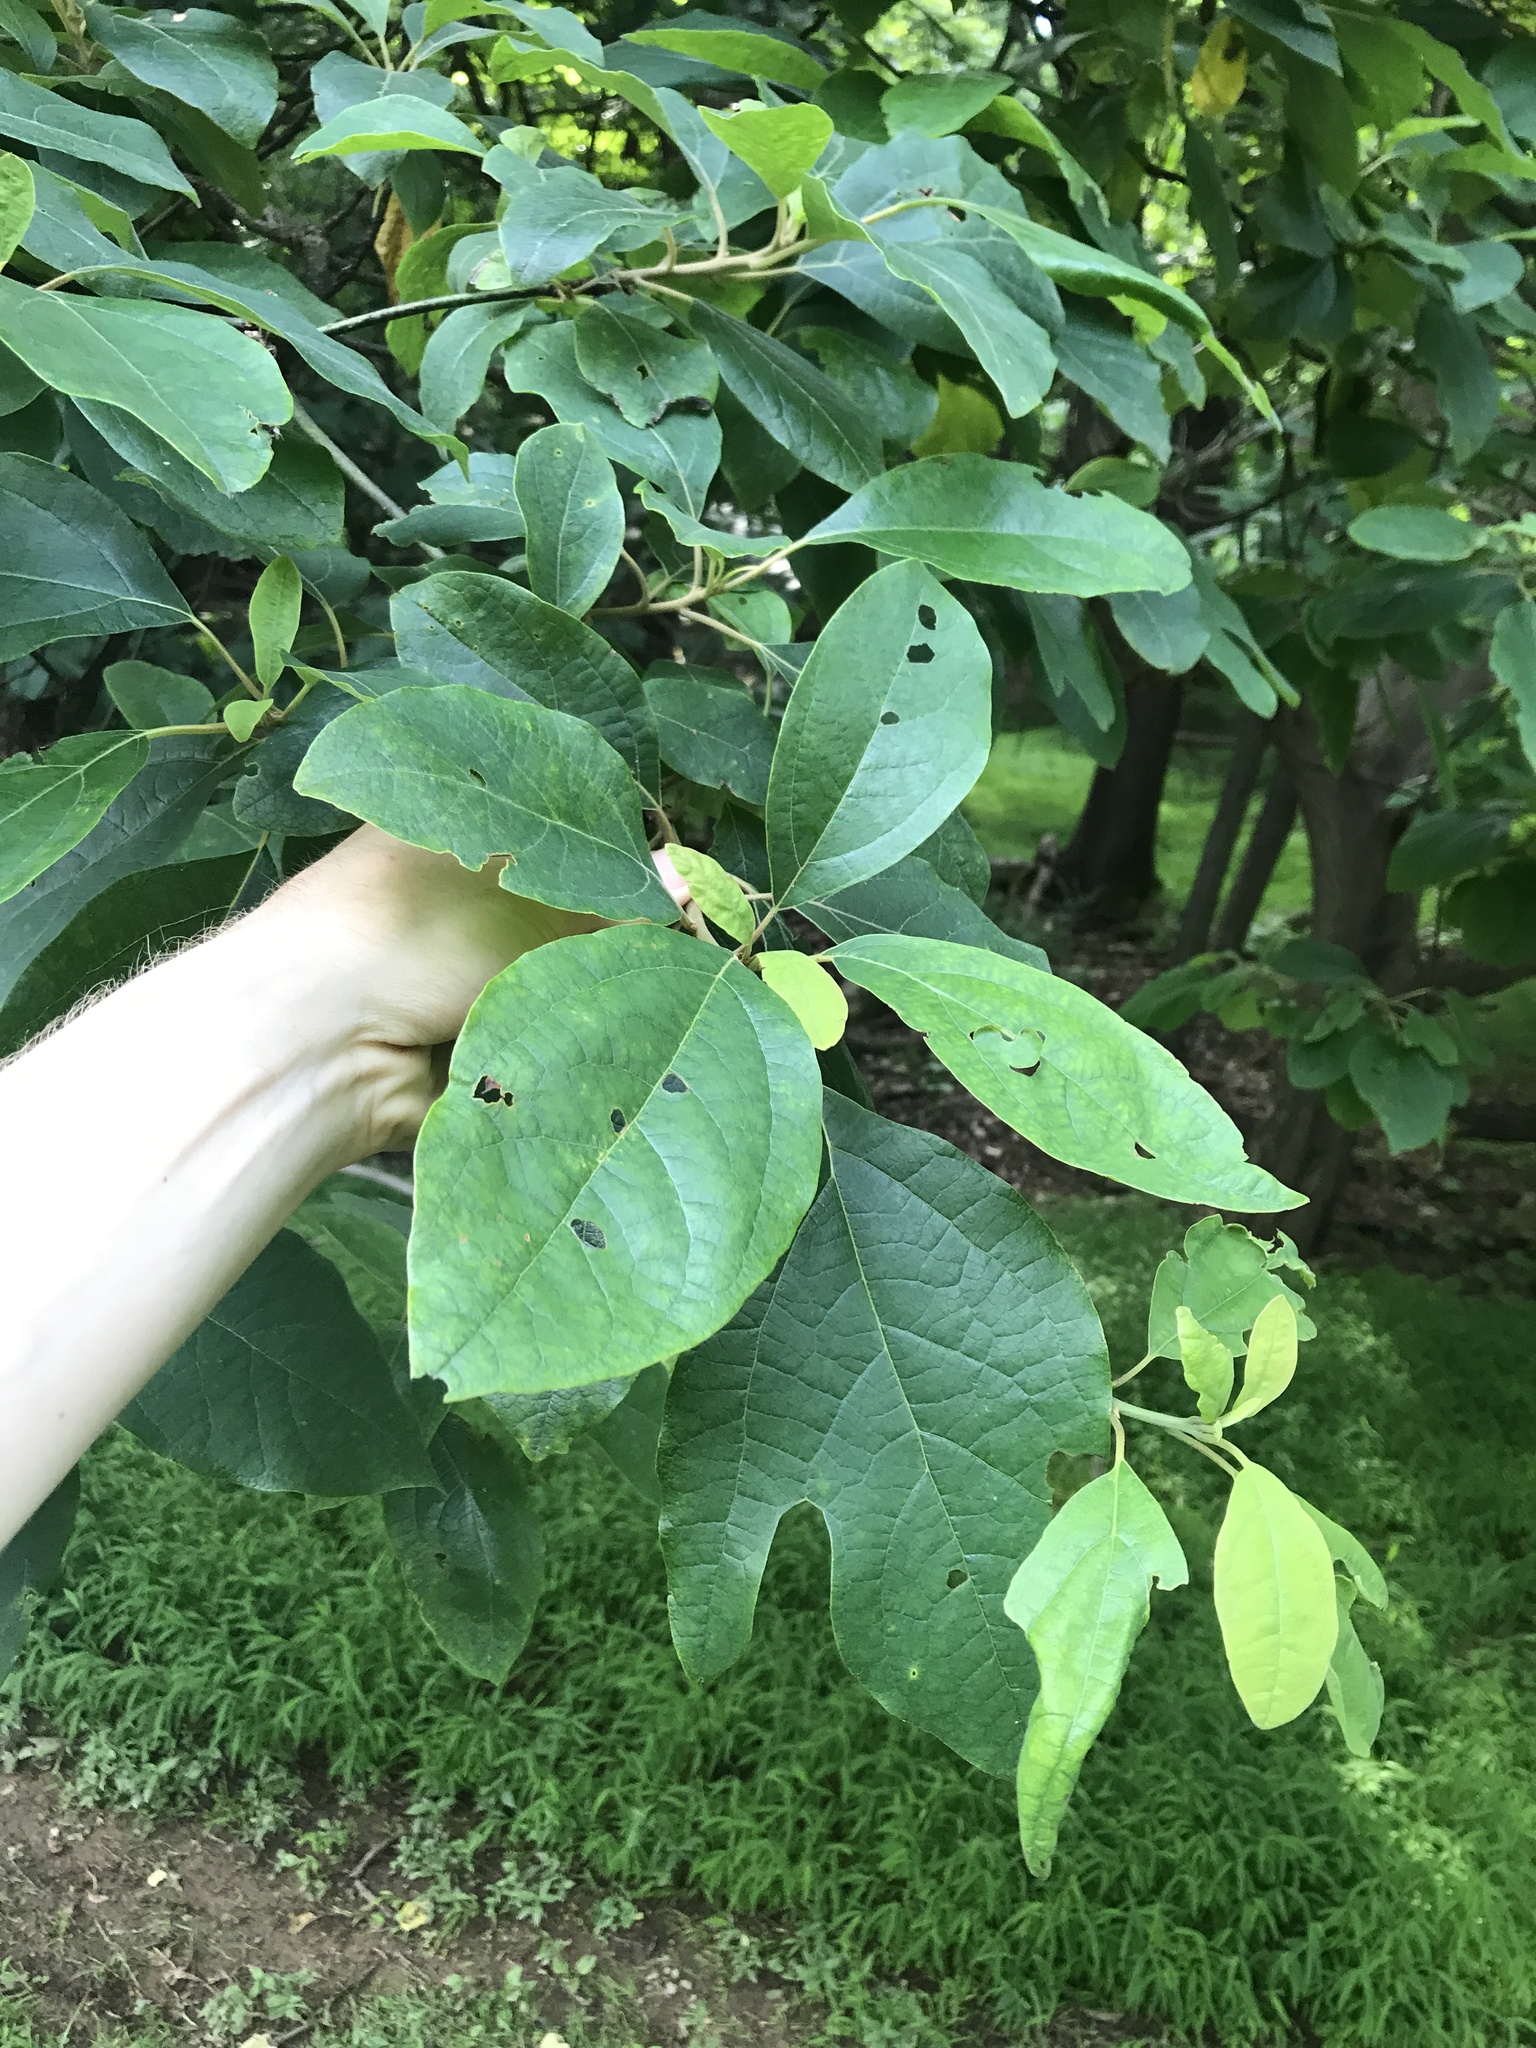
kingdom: Plantae
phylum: Tracheophyta
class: Magnoliopsida
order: Laurales
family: Lauraceae
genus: Sassafras
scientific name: Sassafras albidum
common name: Sassafras
